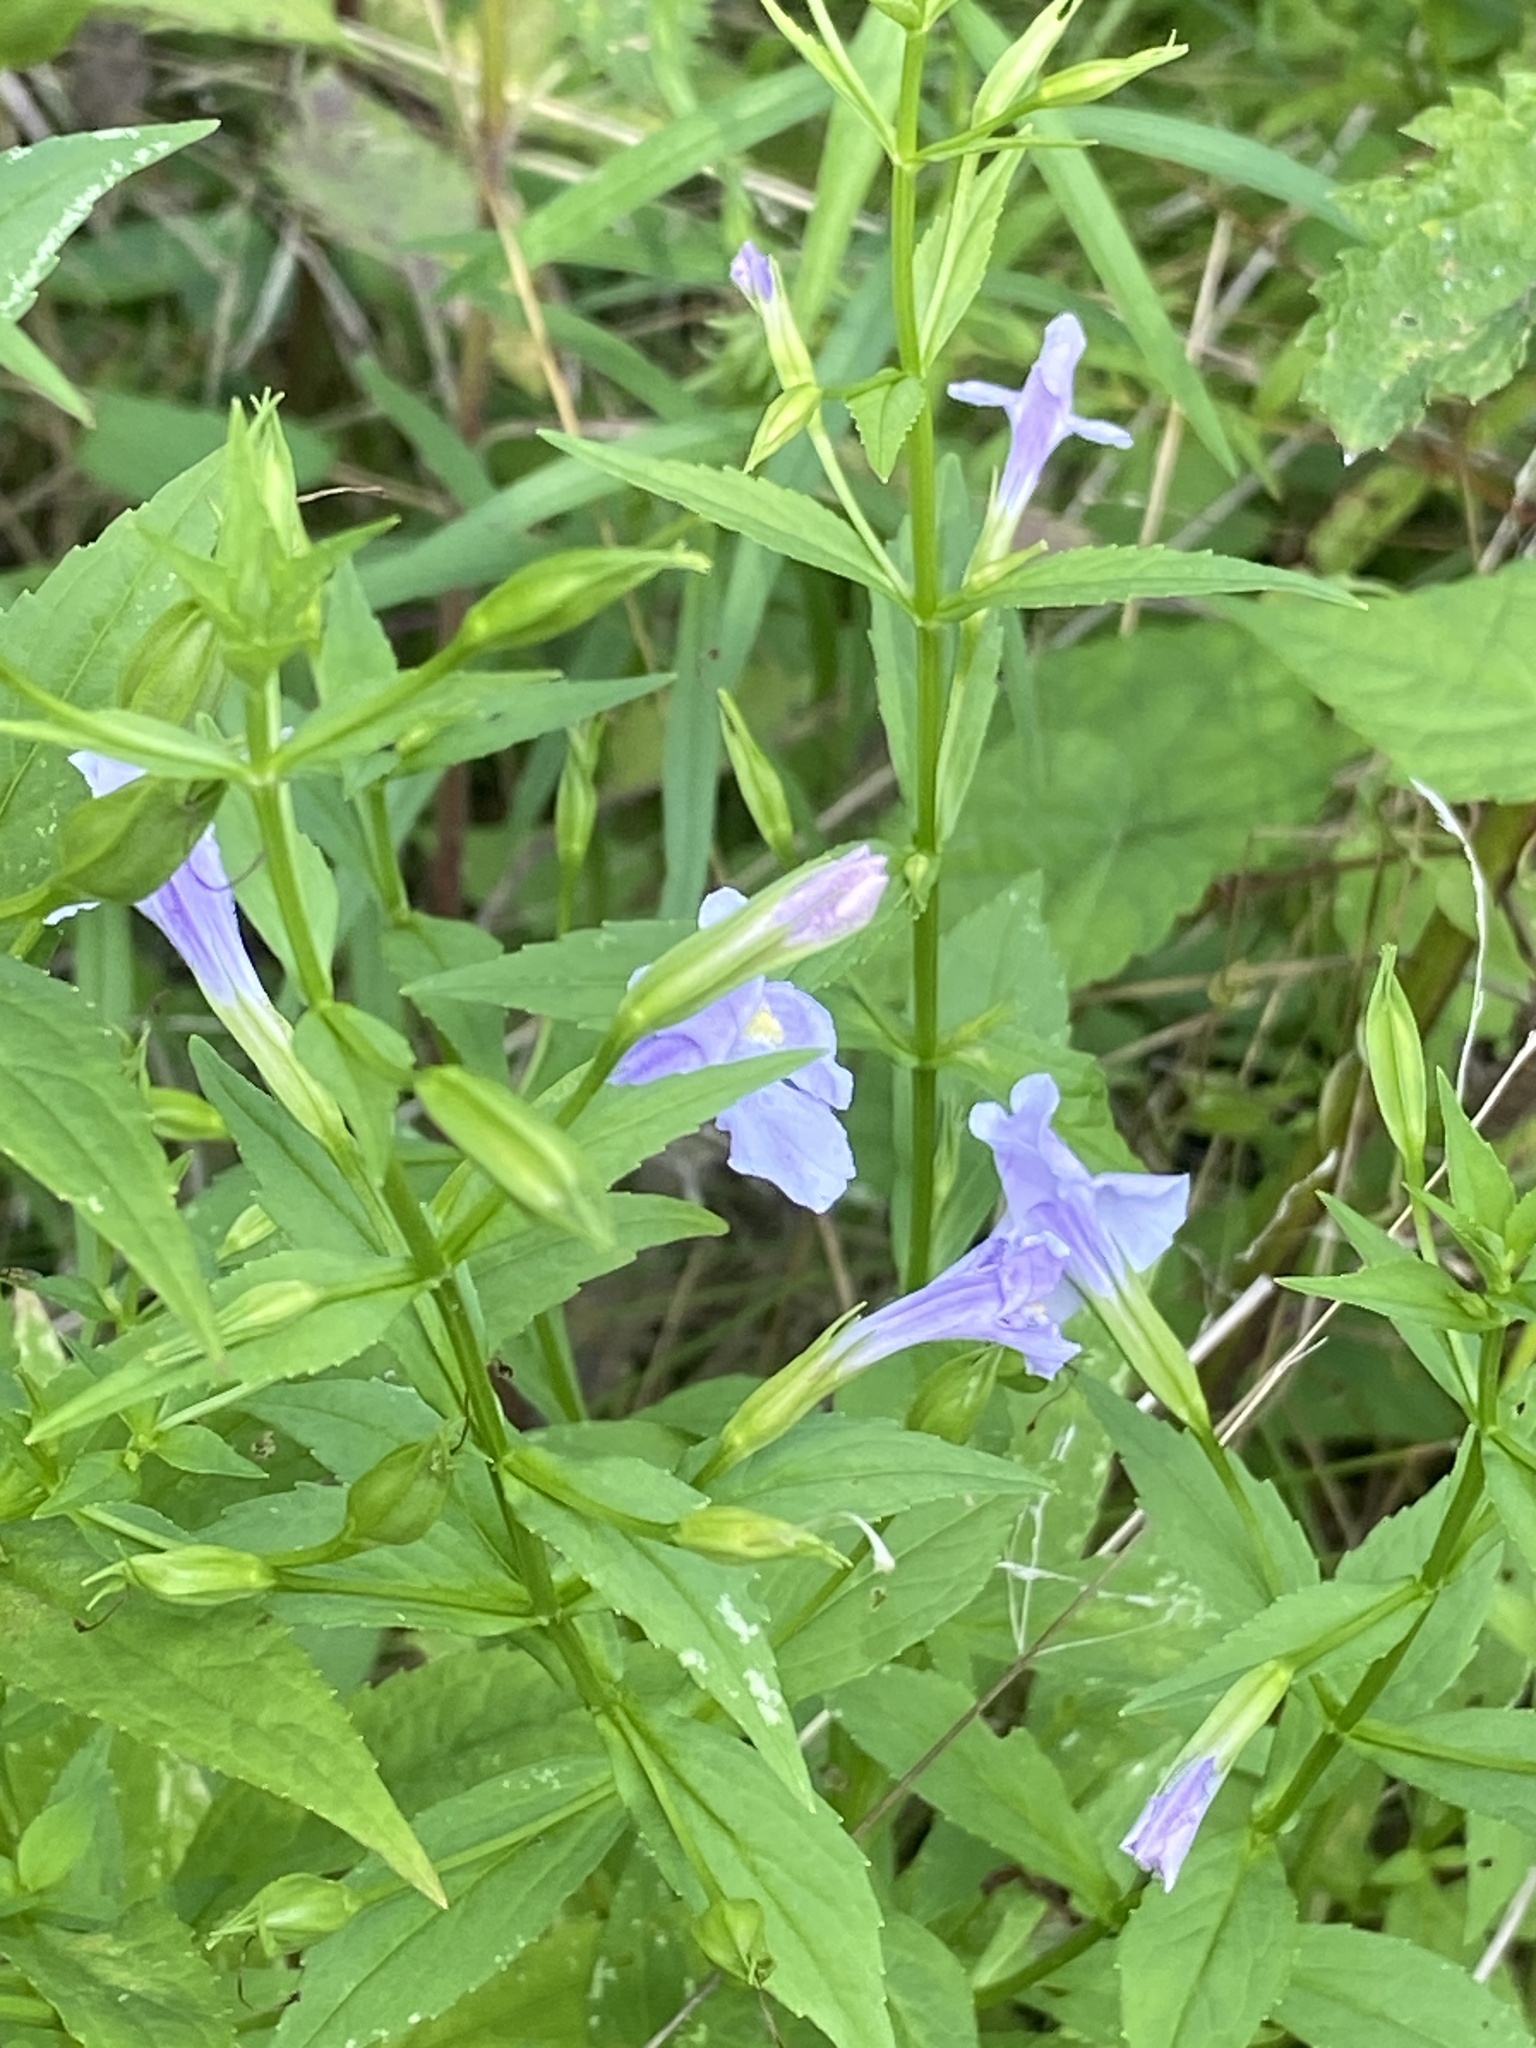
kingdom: Plantae
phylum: Tracheophyta
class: Magnoliopsida
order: Lamiales
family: Phrymaceae
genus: Mimulus
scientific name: Mimulus ringens
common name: Allegheny monkeyflower
